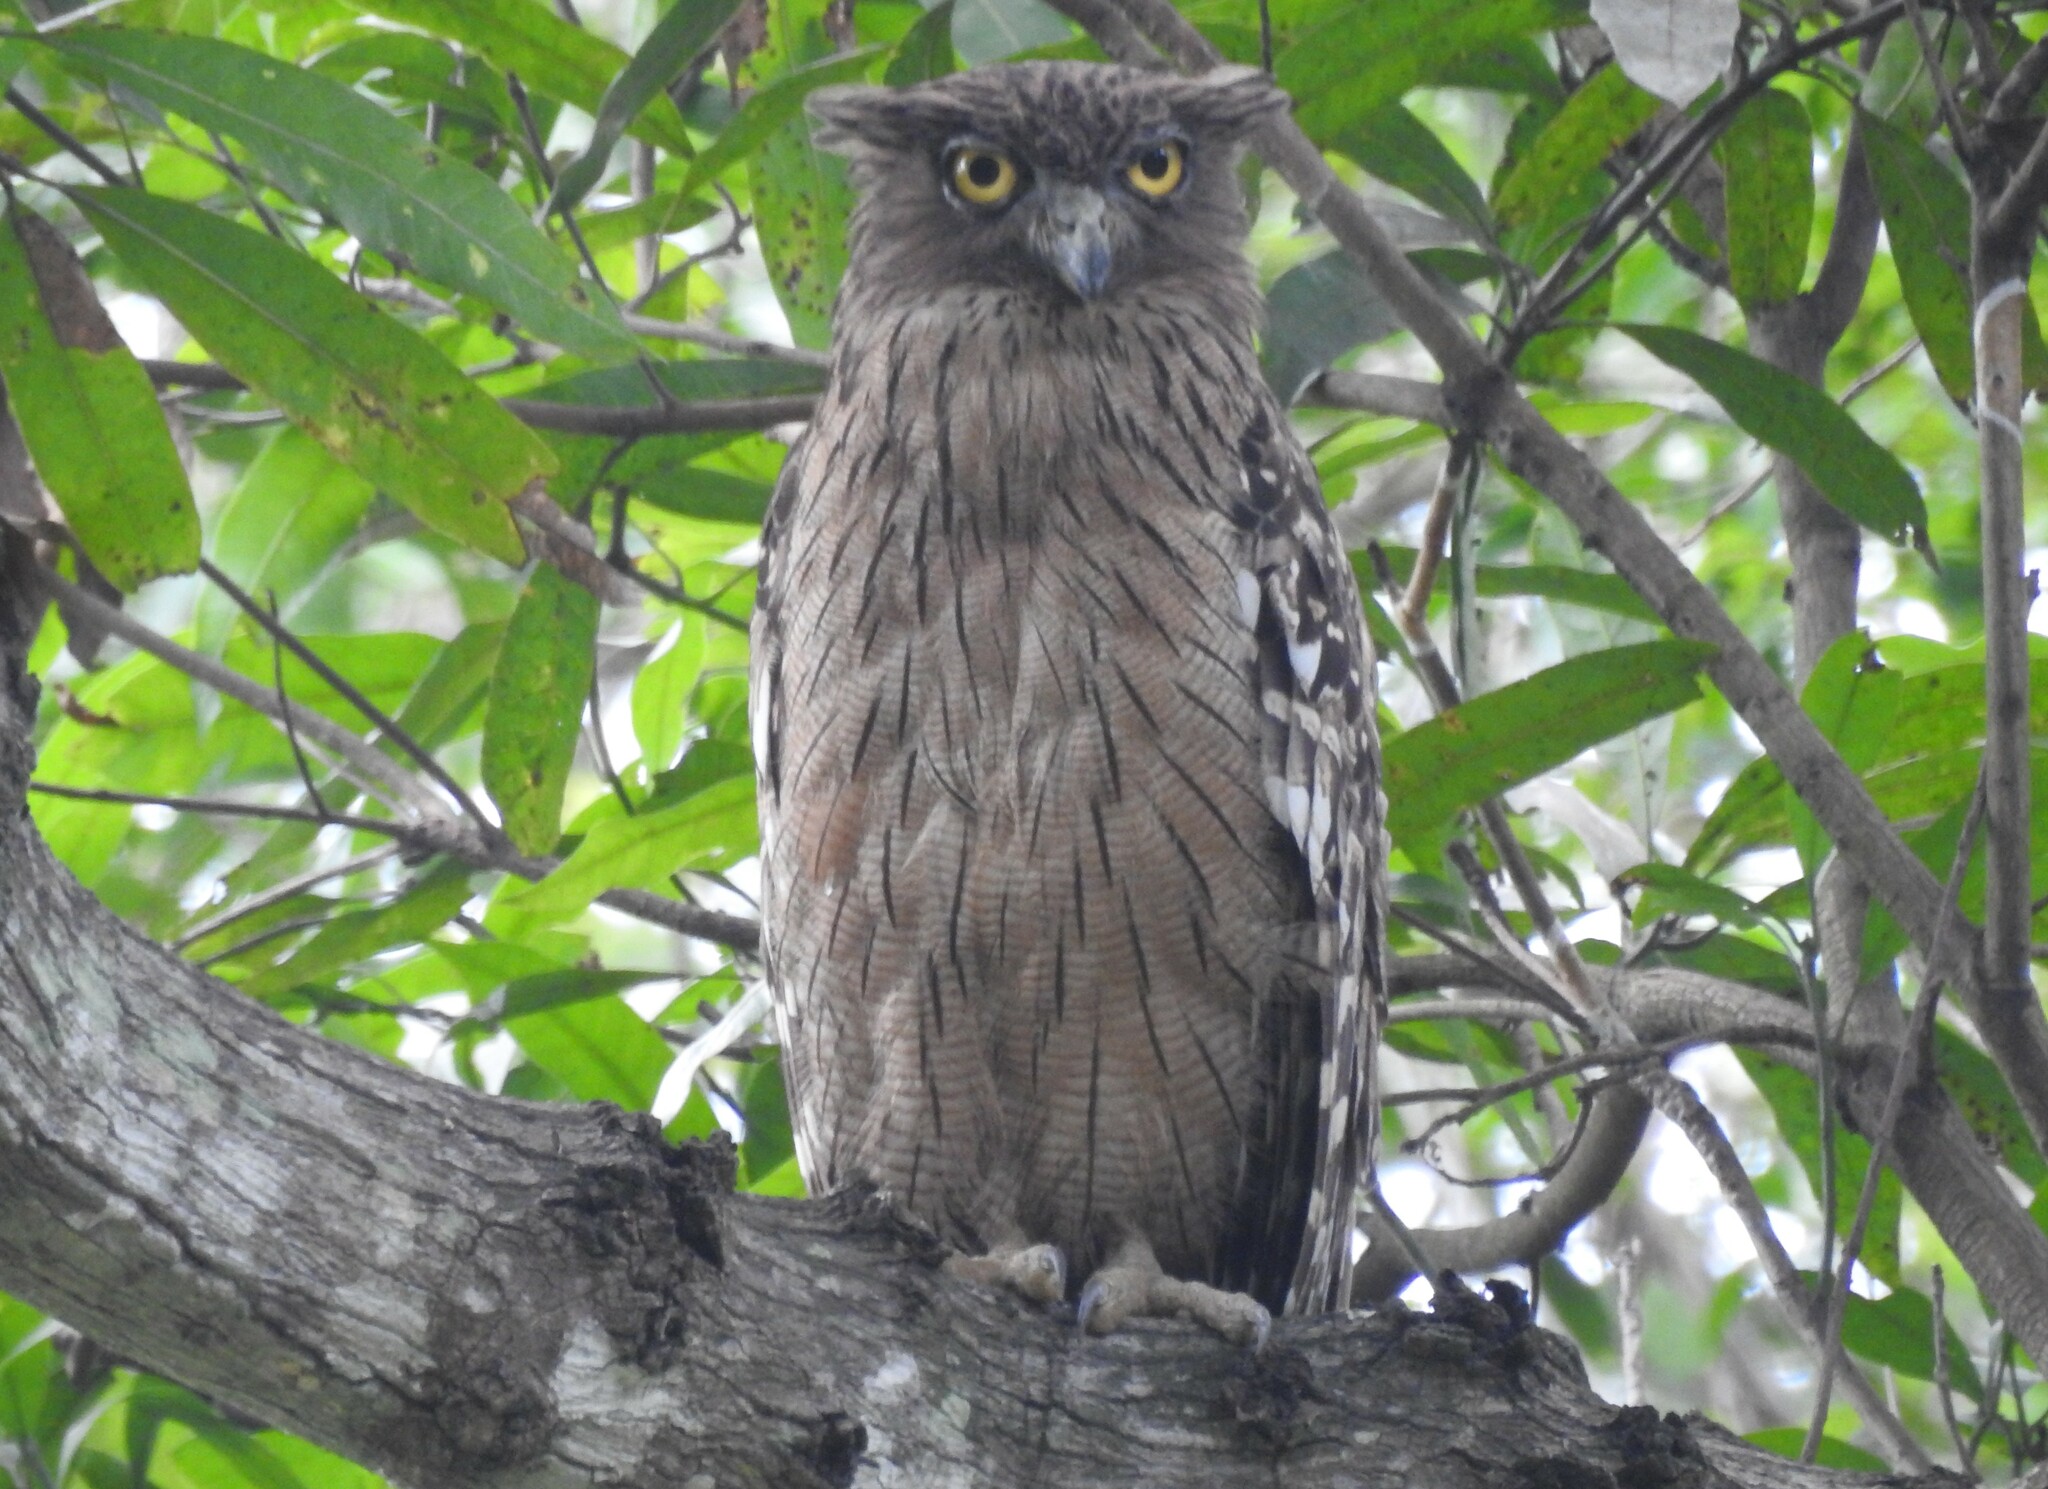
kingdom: Animalia
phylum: Chordata
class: Aves
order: Strigiformes
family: Strigidae
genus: Ketupa
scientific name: Ketupa zeylonensis
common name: Brown fish owl
